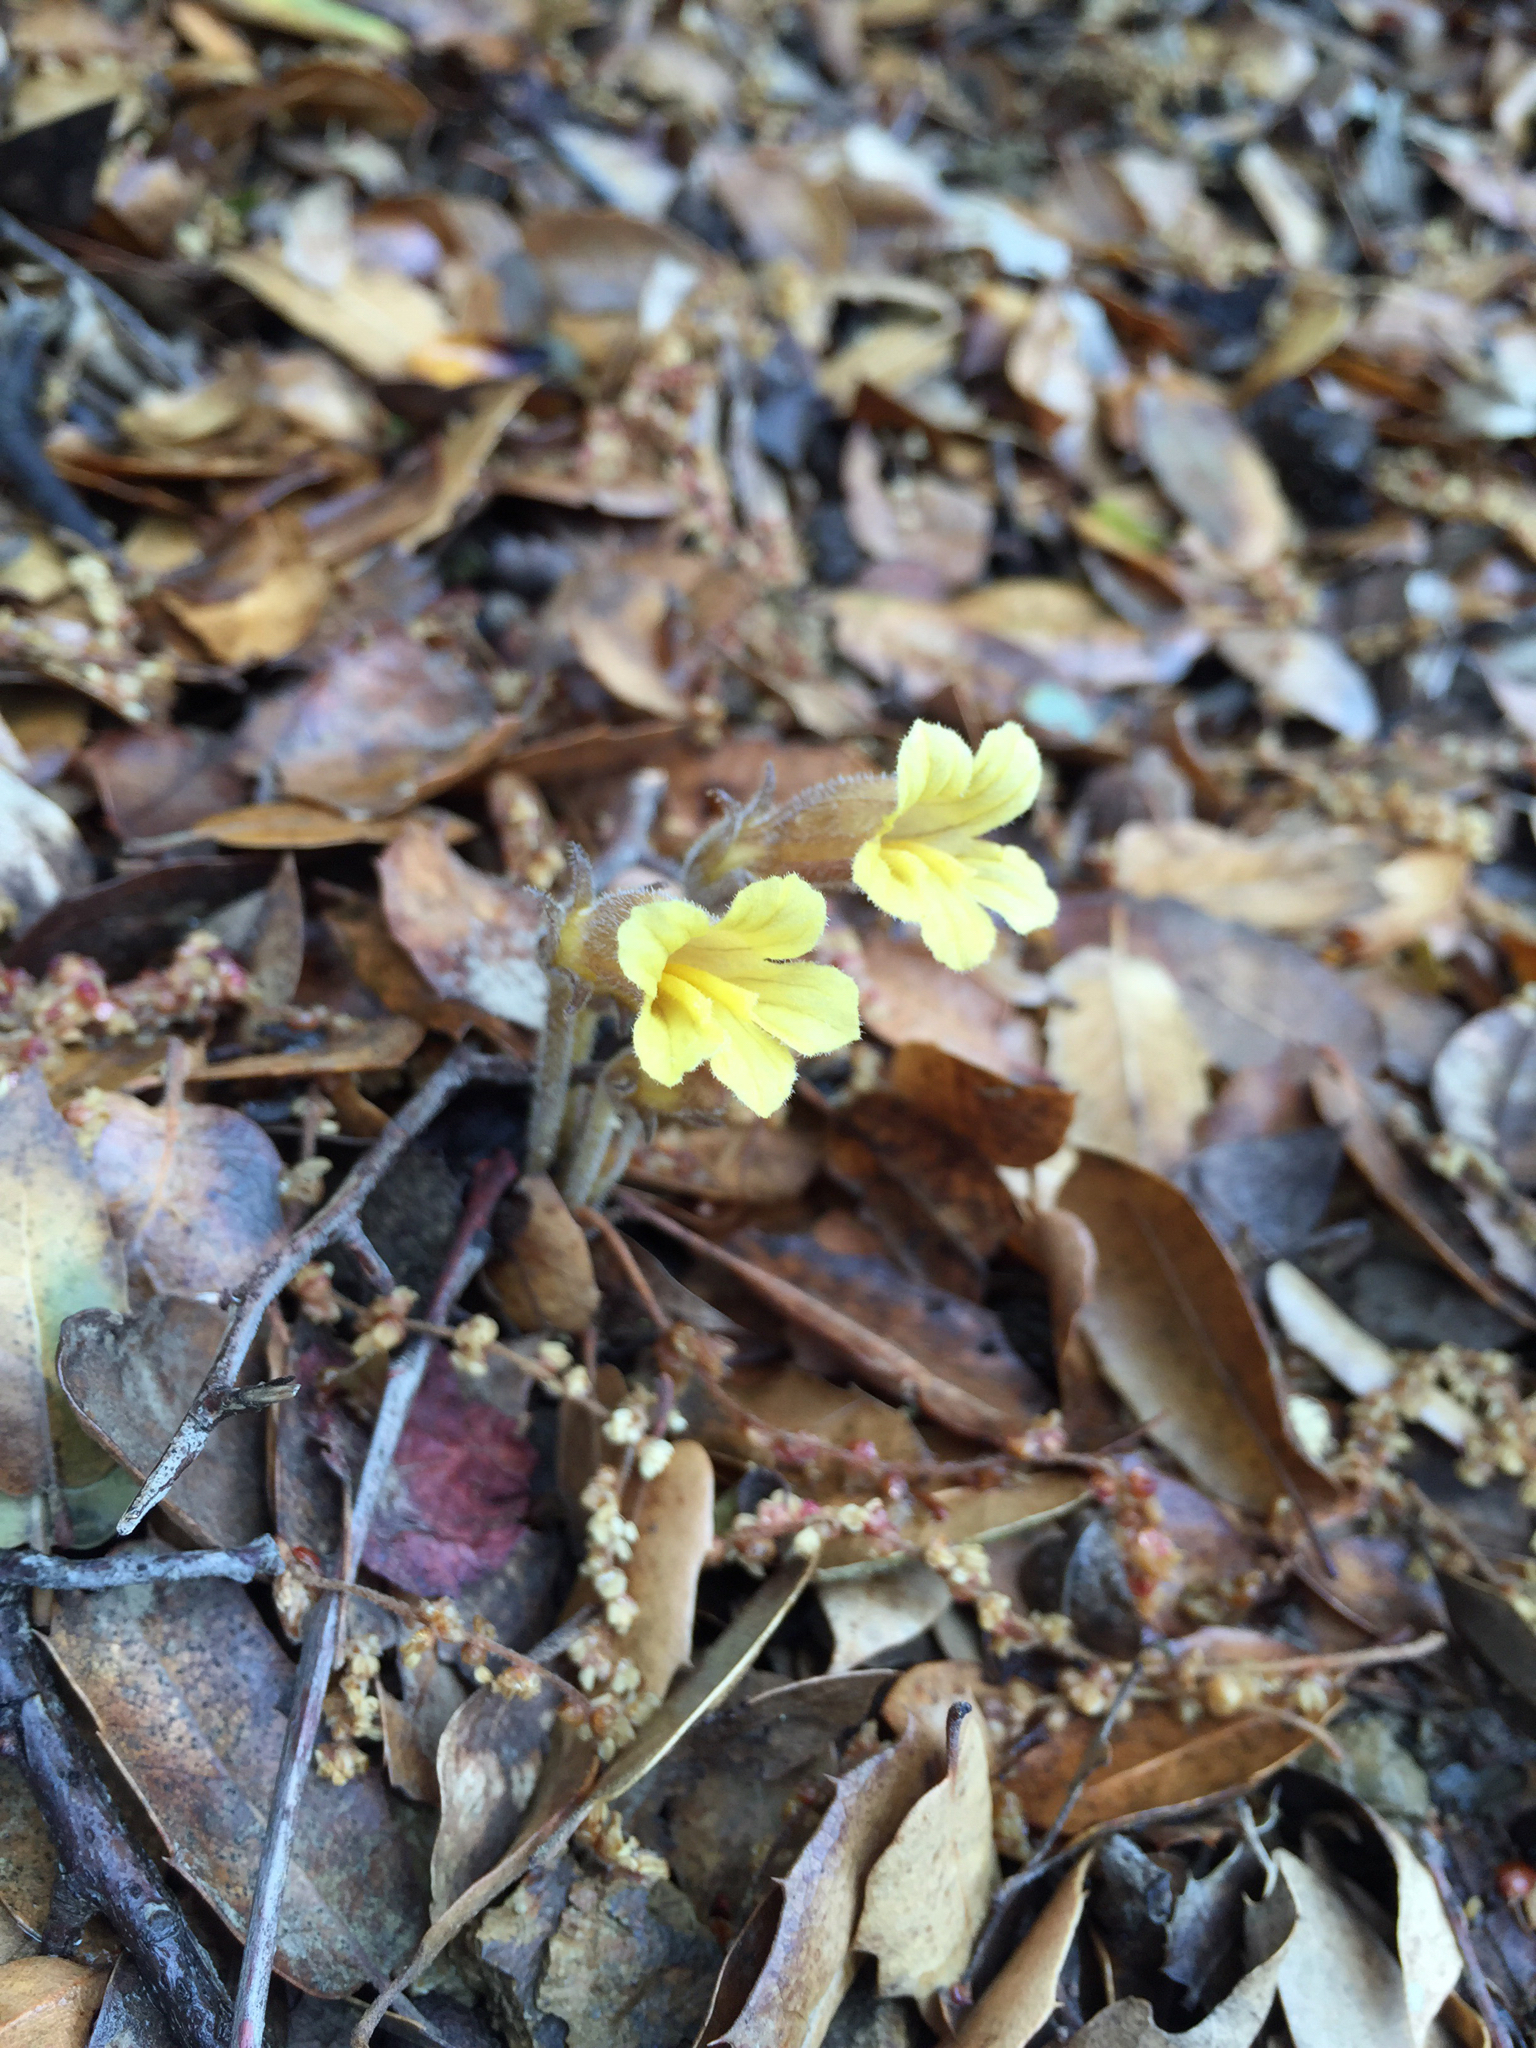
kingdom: Plantae
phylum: Tracheophyta
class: Magnoliopsida
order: Lamiales
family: Orobanchaceae
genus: Aphyllon
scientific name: Aphyllon franciscanum
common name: San francisco broomrape
